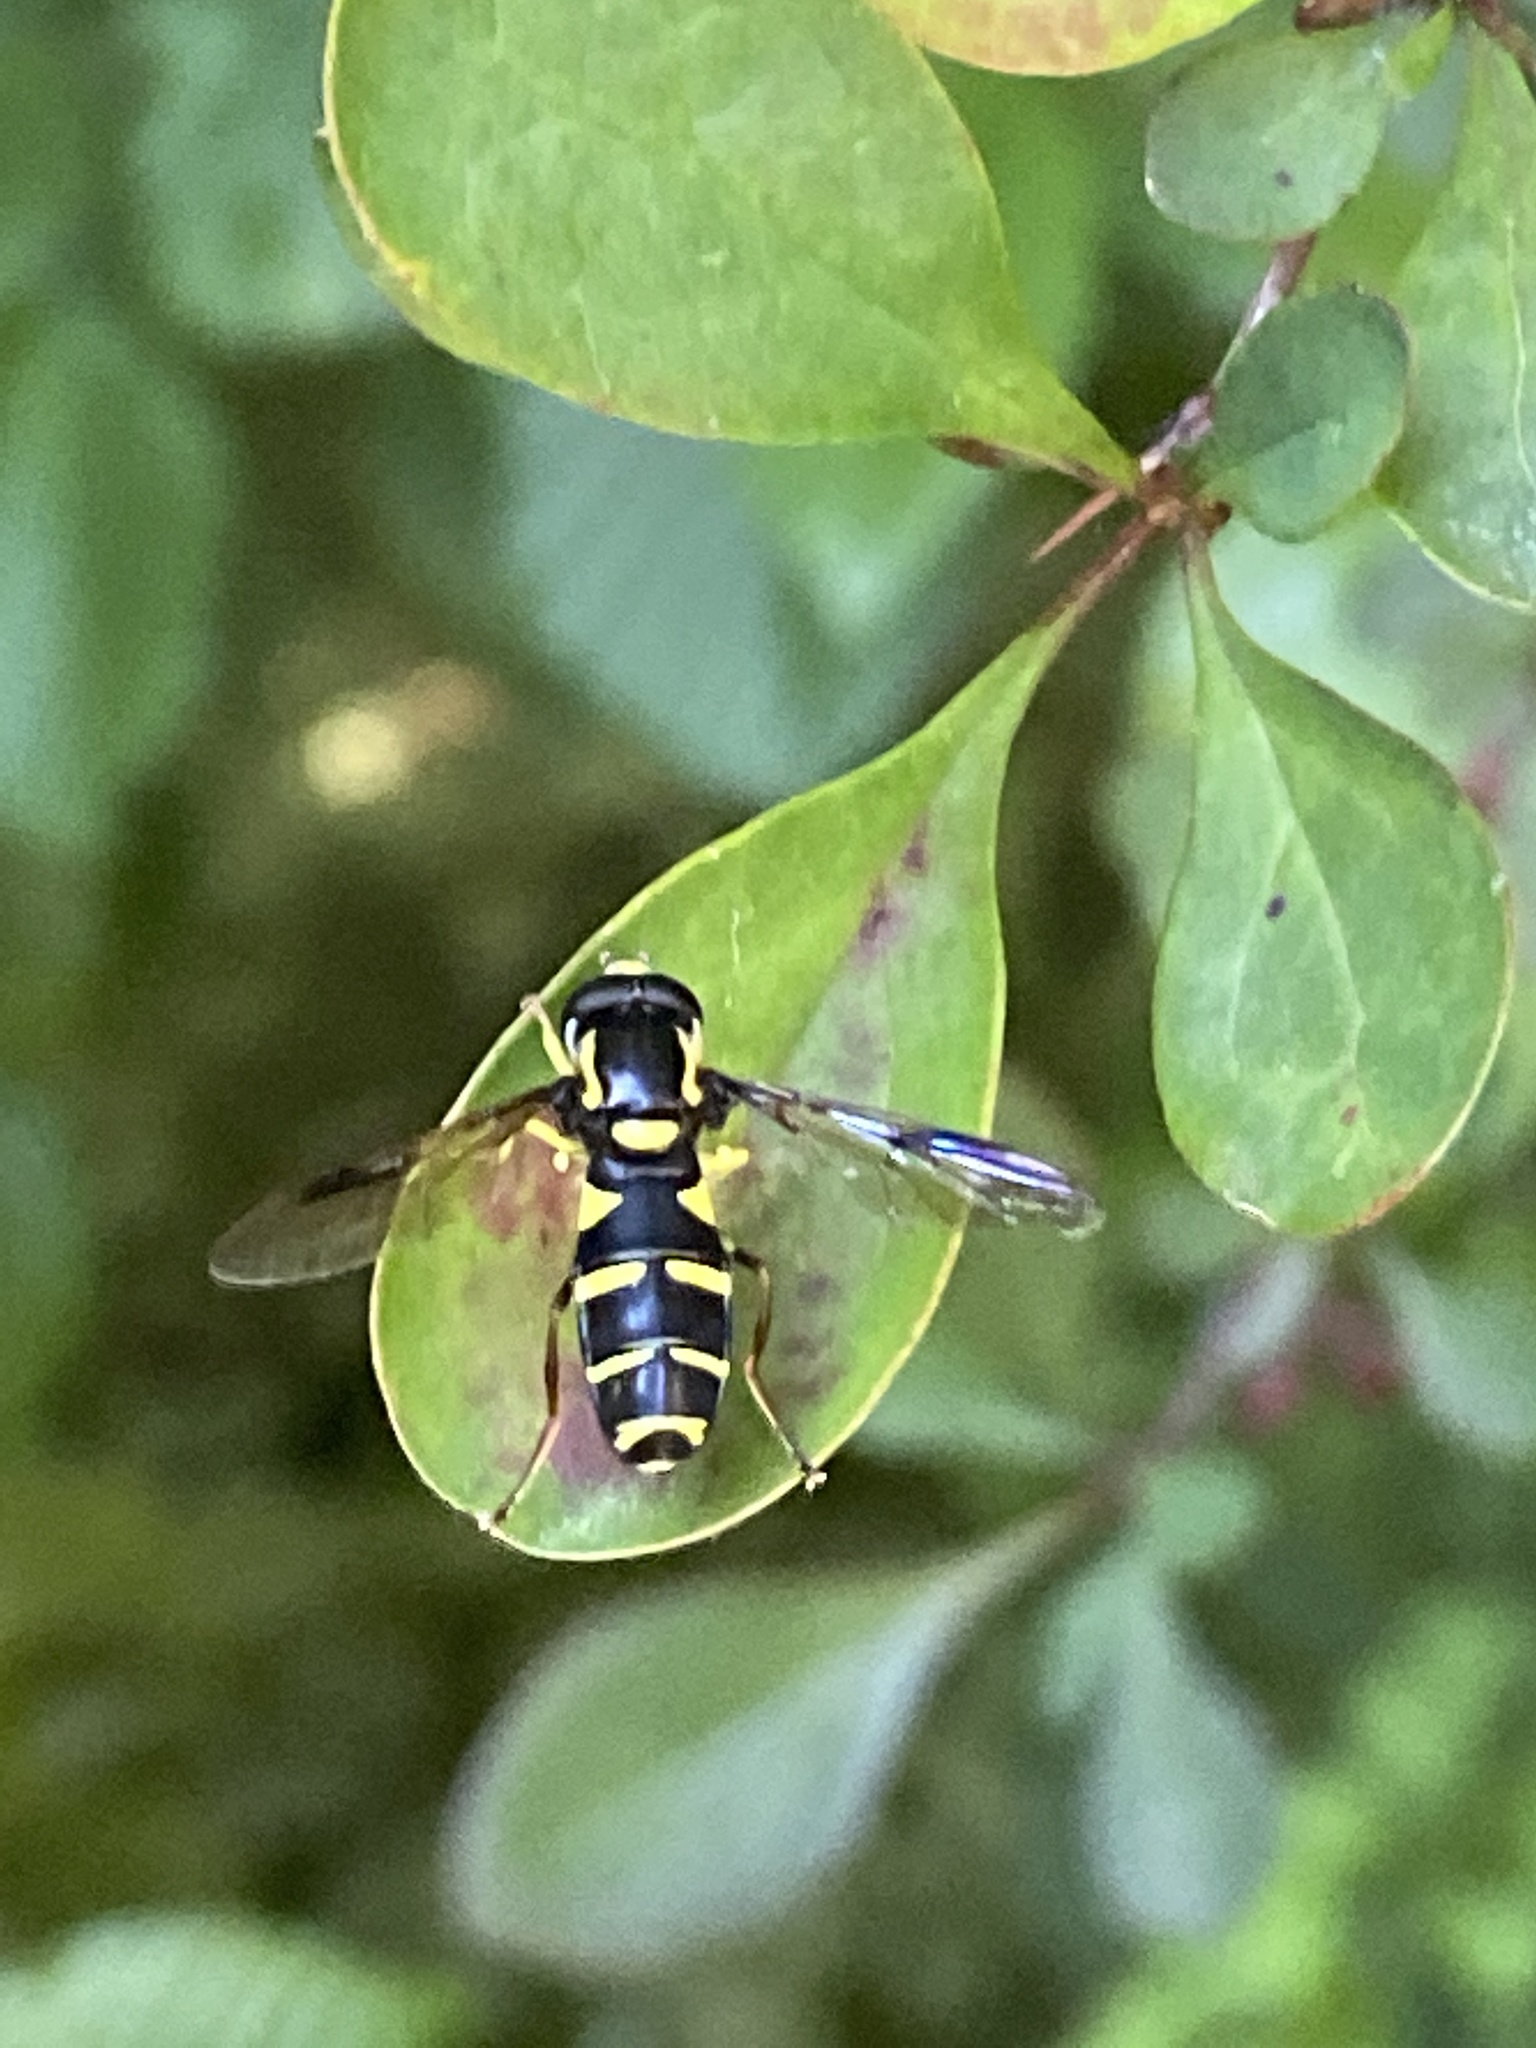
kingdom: Animalia
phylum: Arthropoda
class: Insecta
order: Diptera
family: Syrphidae
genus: Philhelius
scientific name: Philhelius pedissequum
